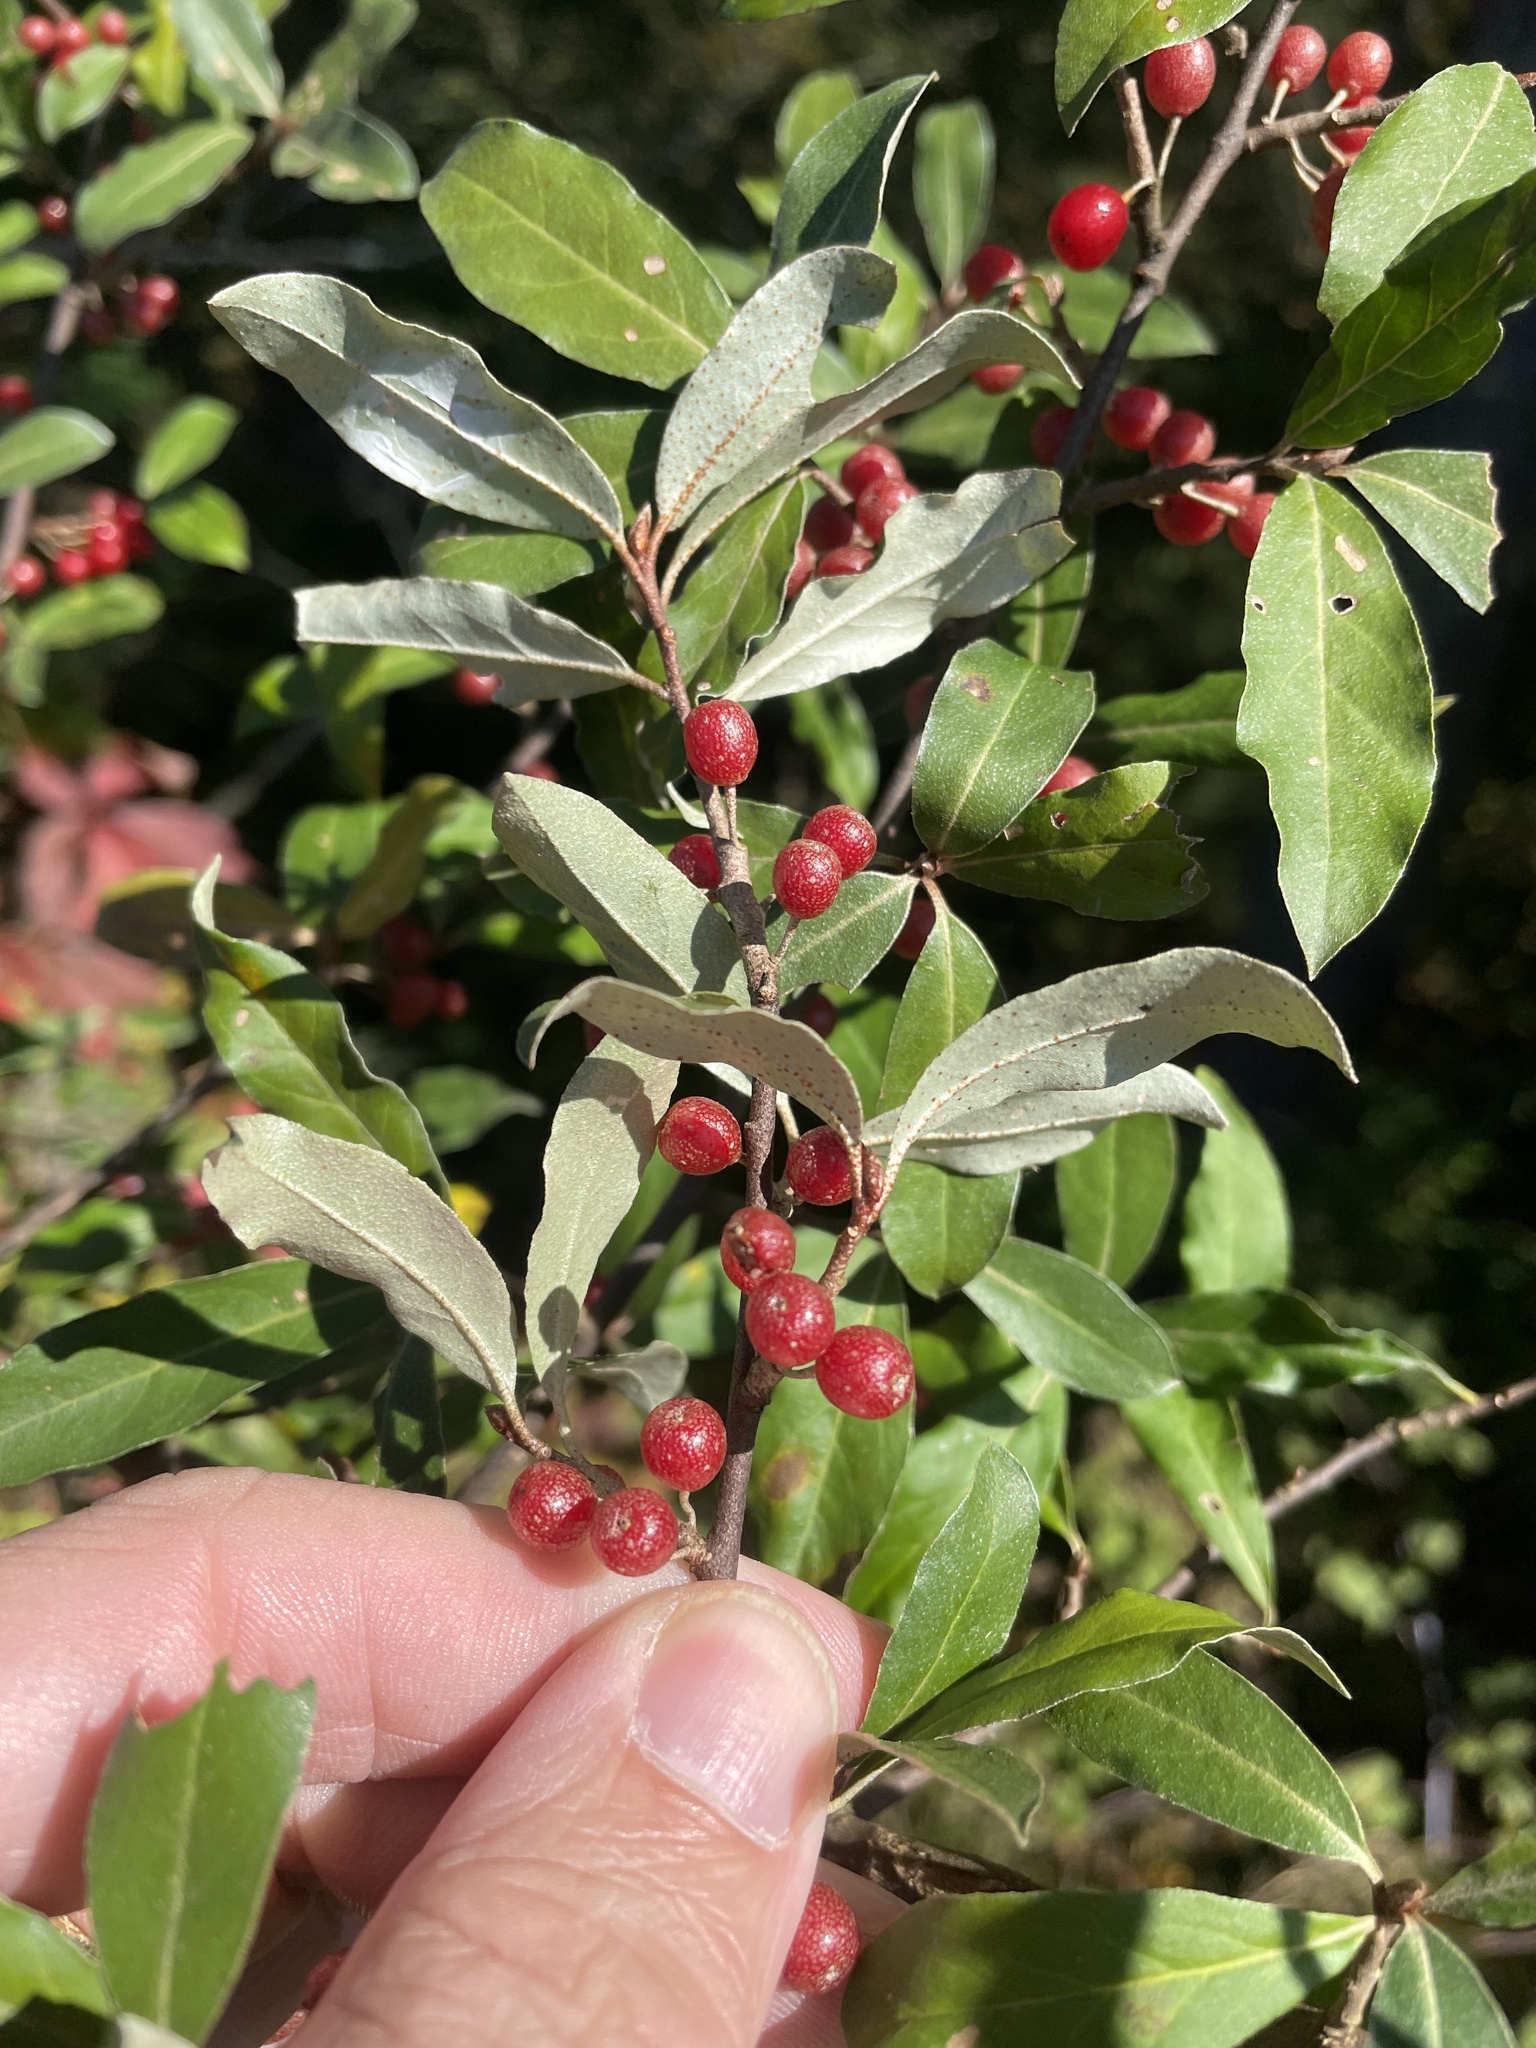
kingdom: Plantae
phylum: Tracheophyta
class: Magnoliopsida
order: Rosales
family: Elaeagnaceae
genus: Elaeagnus
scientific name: Elaeagnus umbellata
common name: Autumn olive
